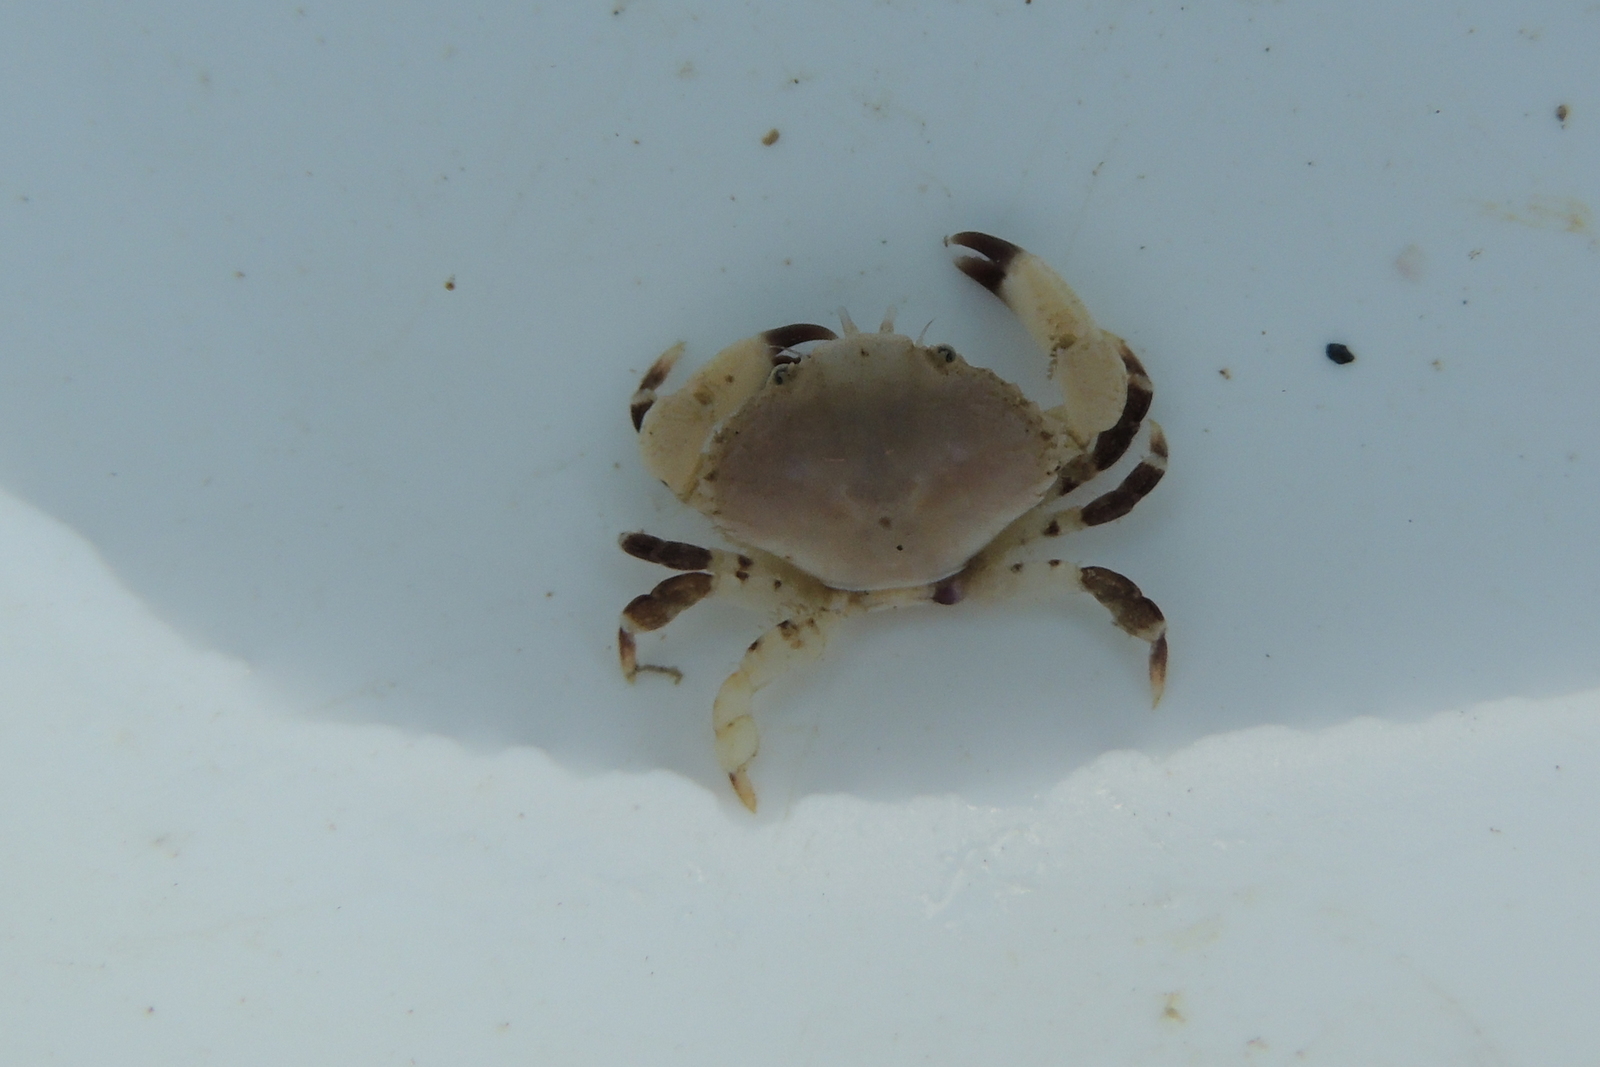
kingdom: Animalia
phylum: Arthropoda
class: Malacostraca
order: Decapoda
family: Xanthidae
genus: Cycloxanthops
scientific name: Cycloxanthops novemdentatus
